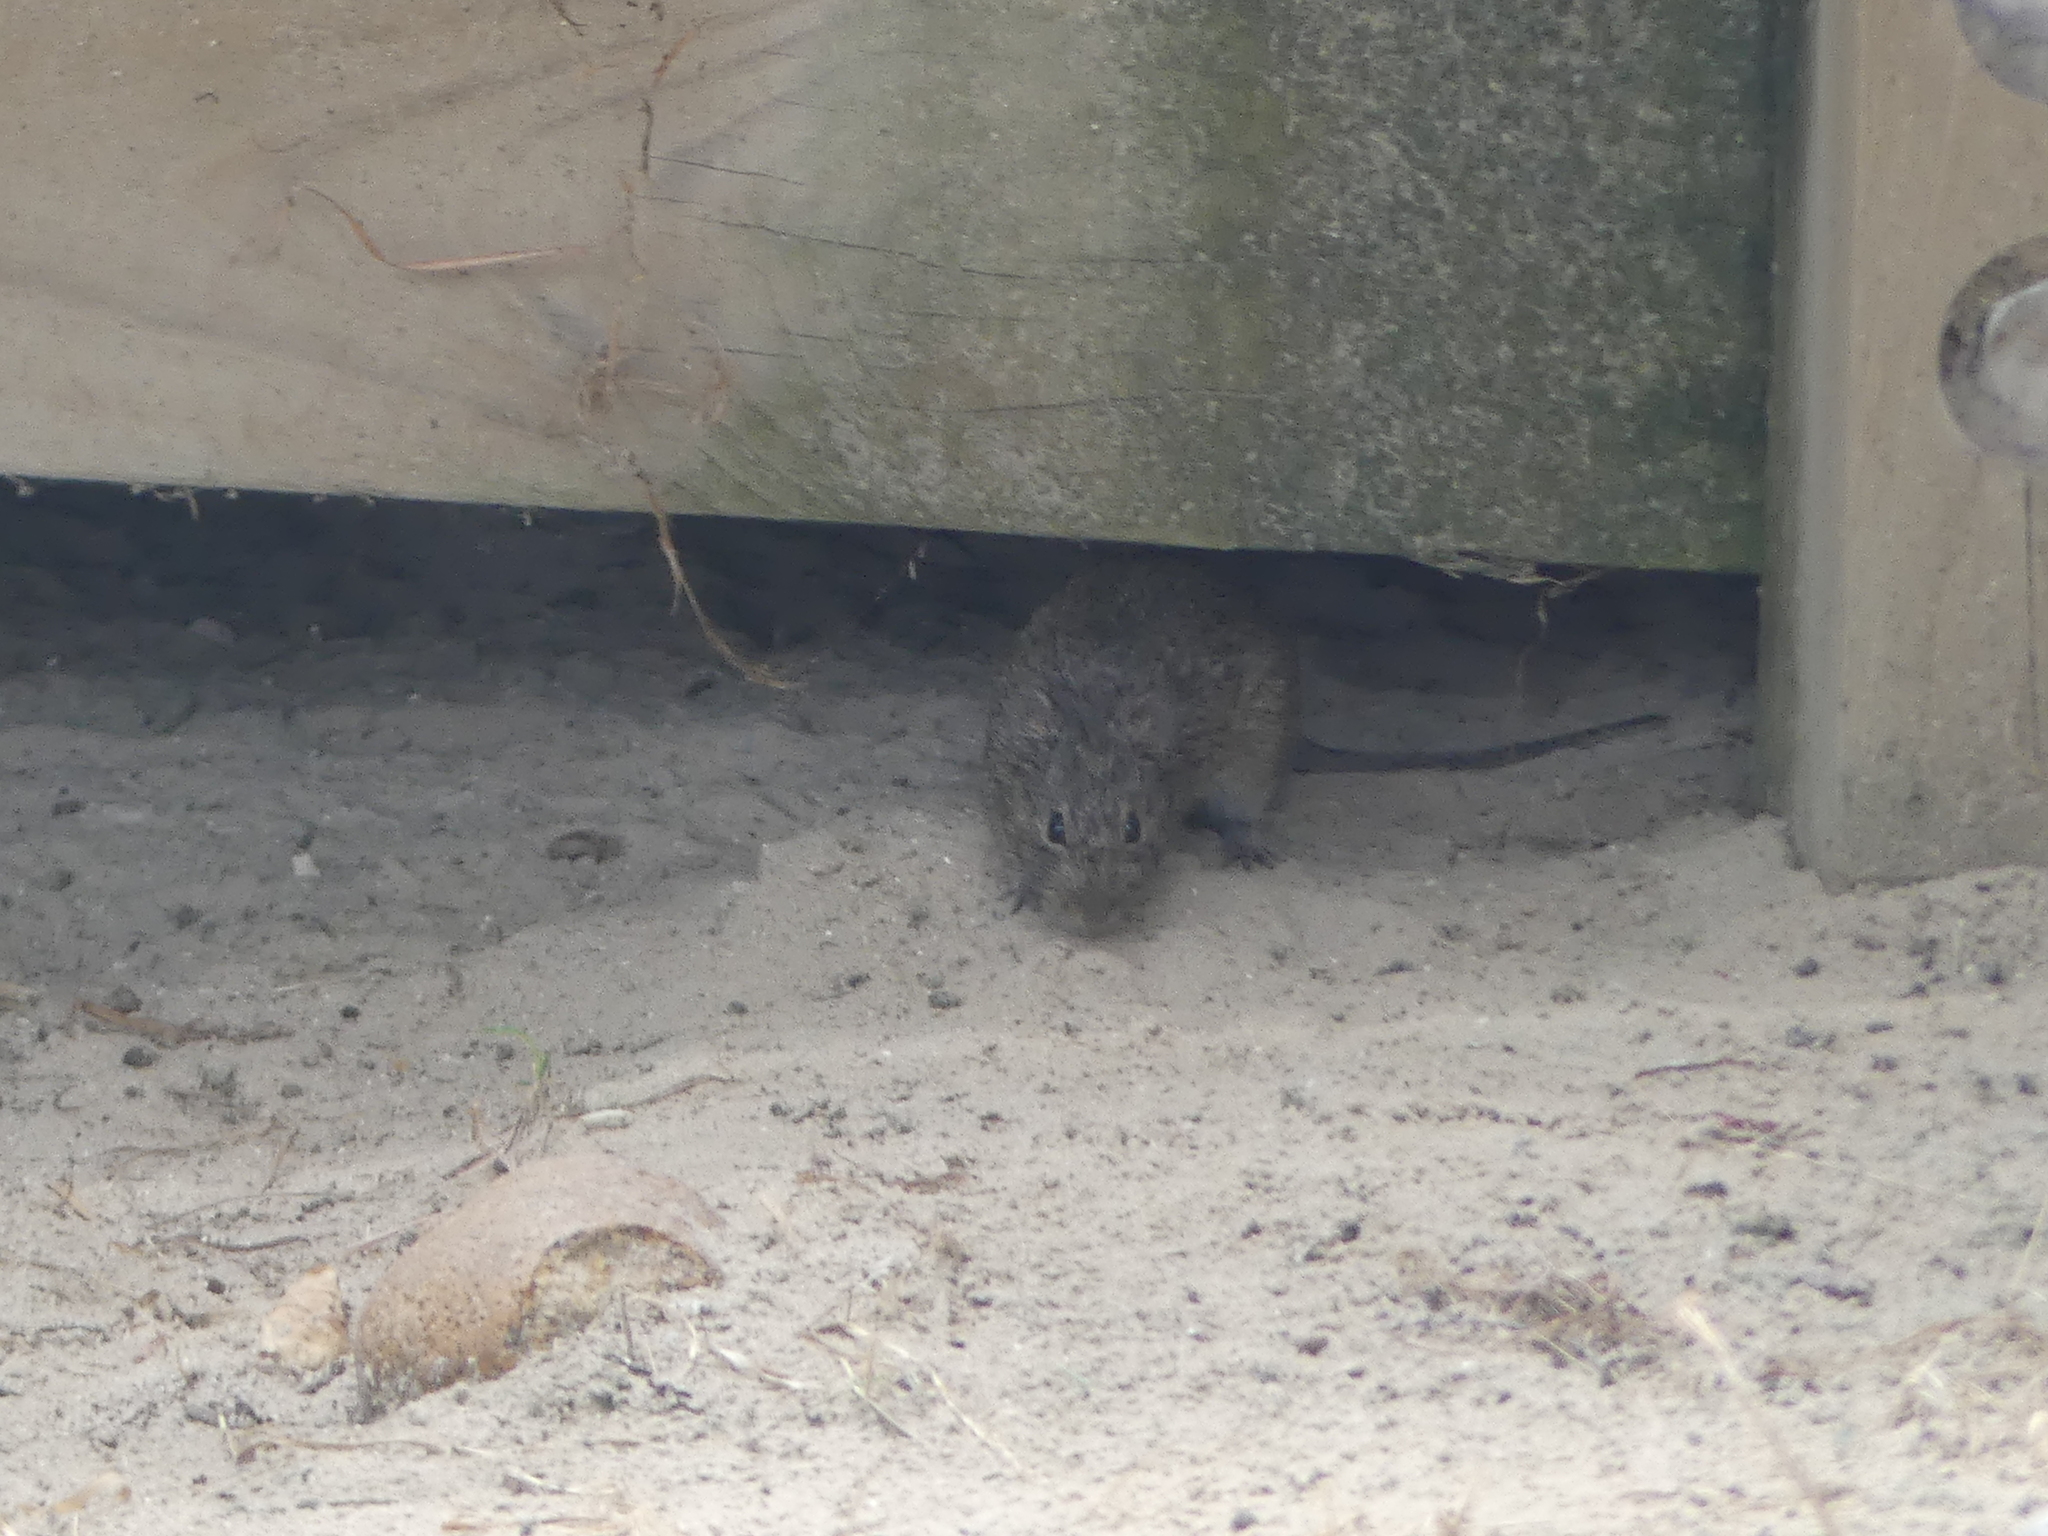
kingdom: Animalia
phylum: Chordata
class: Mammalia
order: Rodentia
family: Cricetidae
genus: Sigmodon
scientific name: Sigmodon hispidus
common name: Hispid cotton rat
